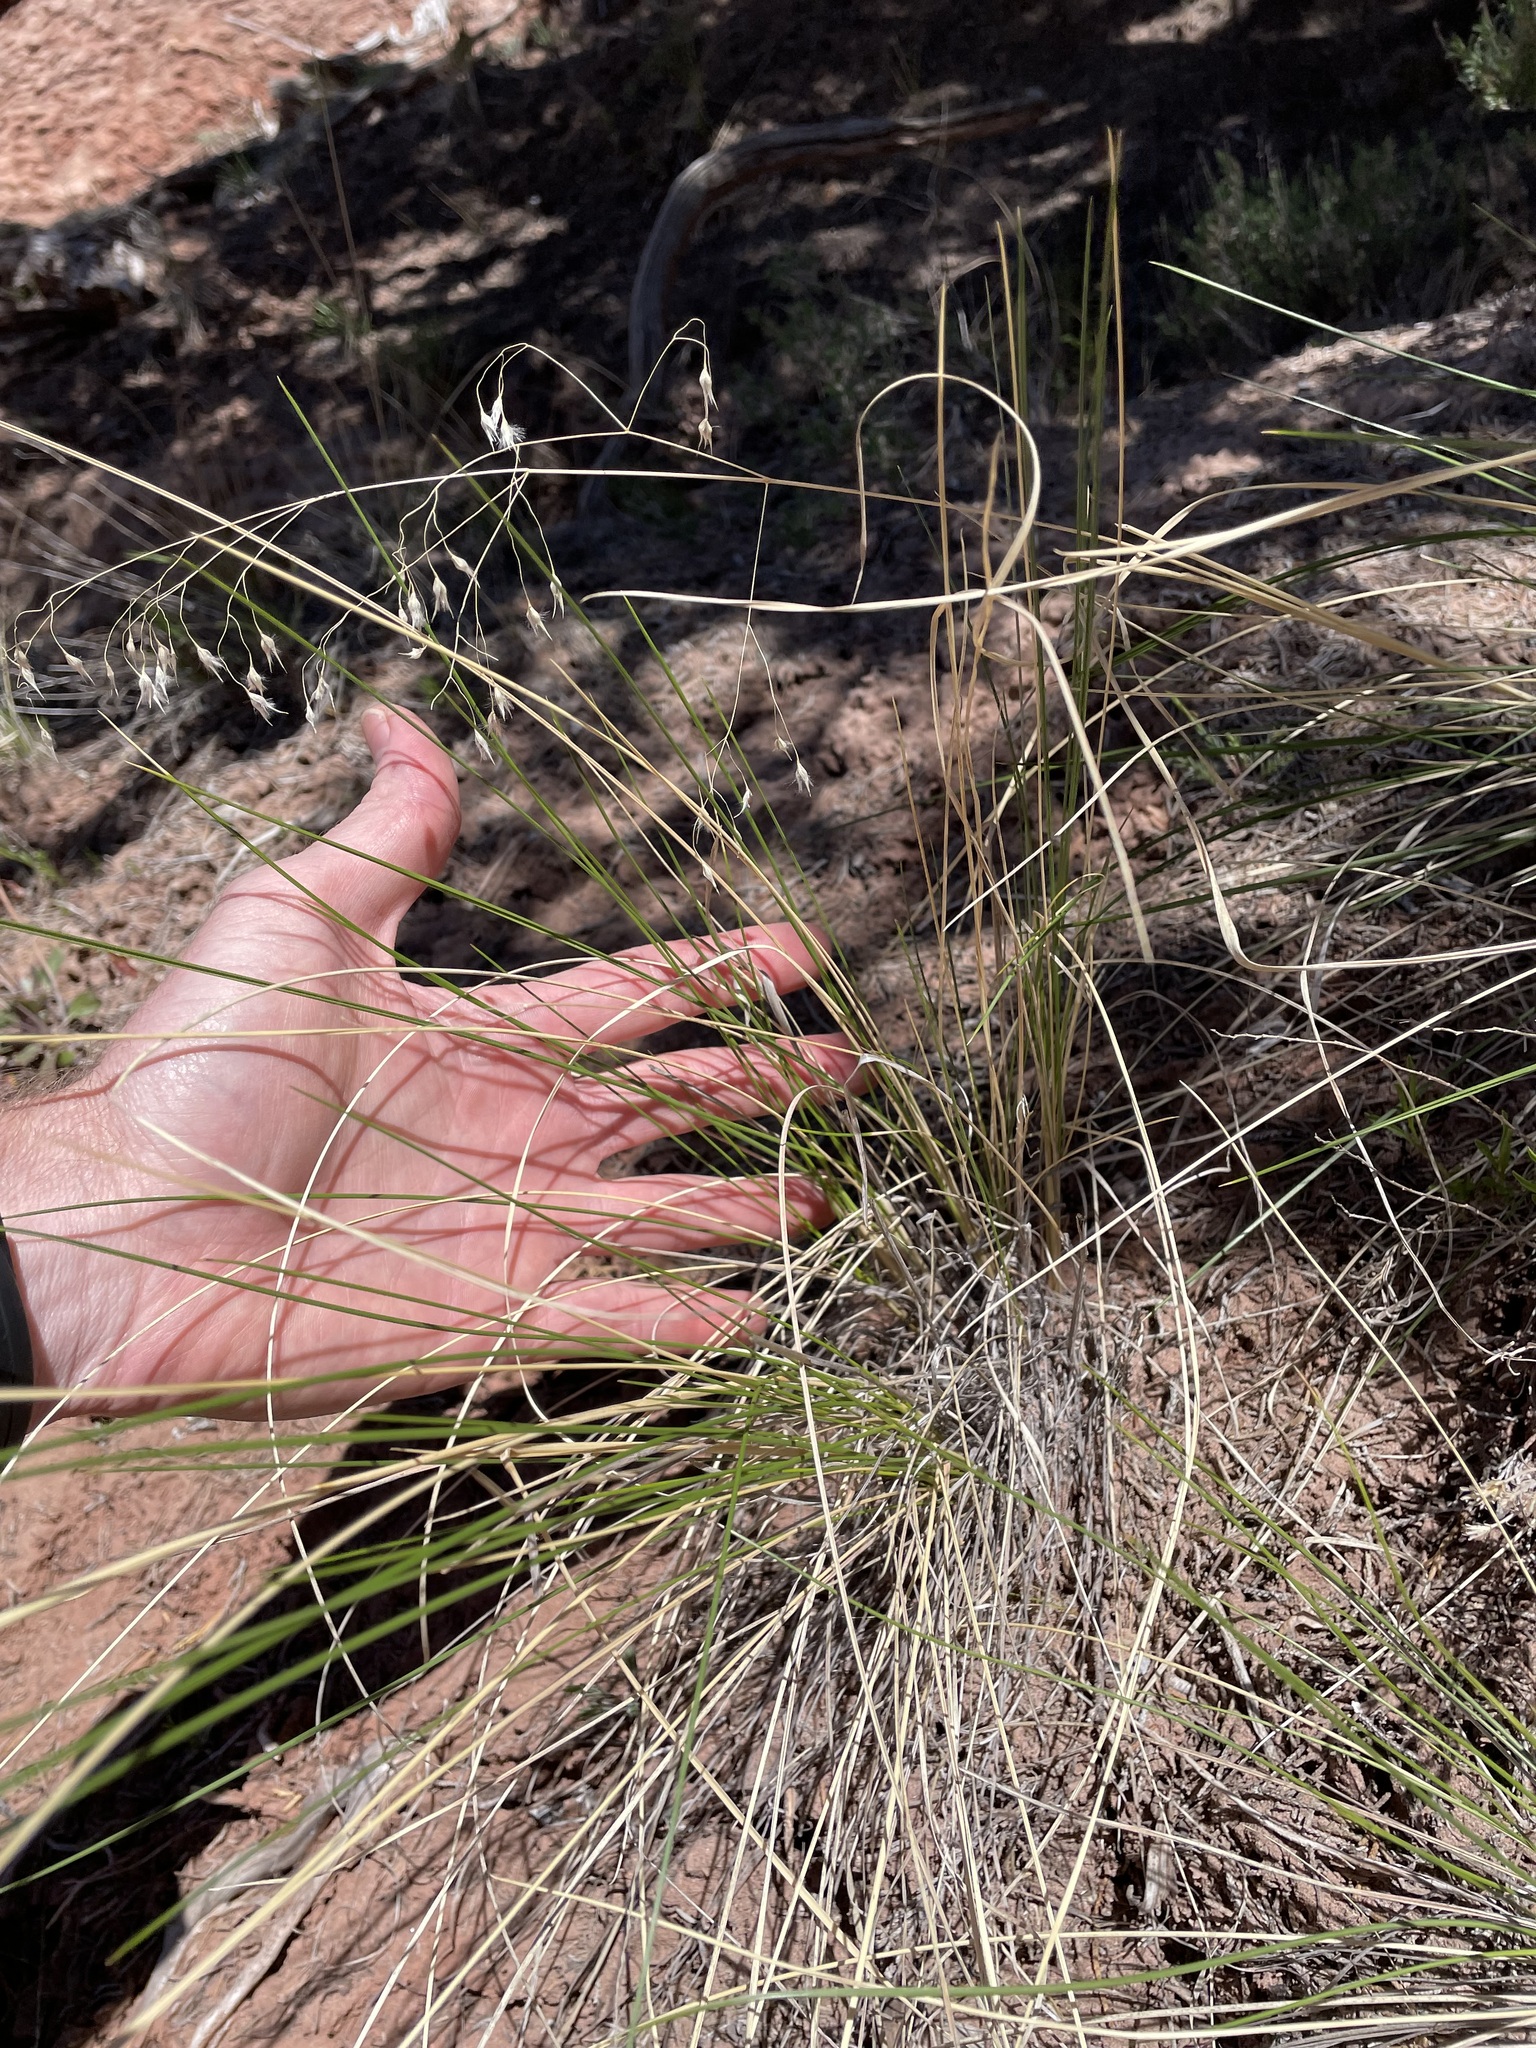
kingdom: Plantae
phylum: Tracheophyta
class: Liliopsida
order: Poales
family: Poaceae
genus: Eriocoma
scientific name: Eriocoma hymenoides
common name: Indian mountain ricegrass
